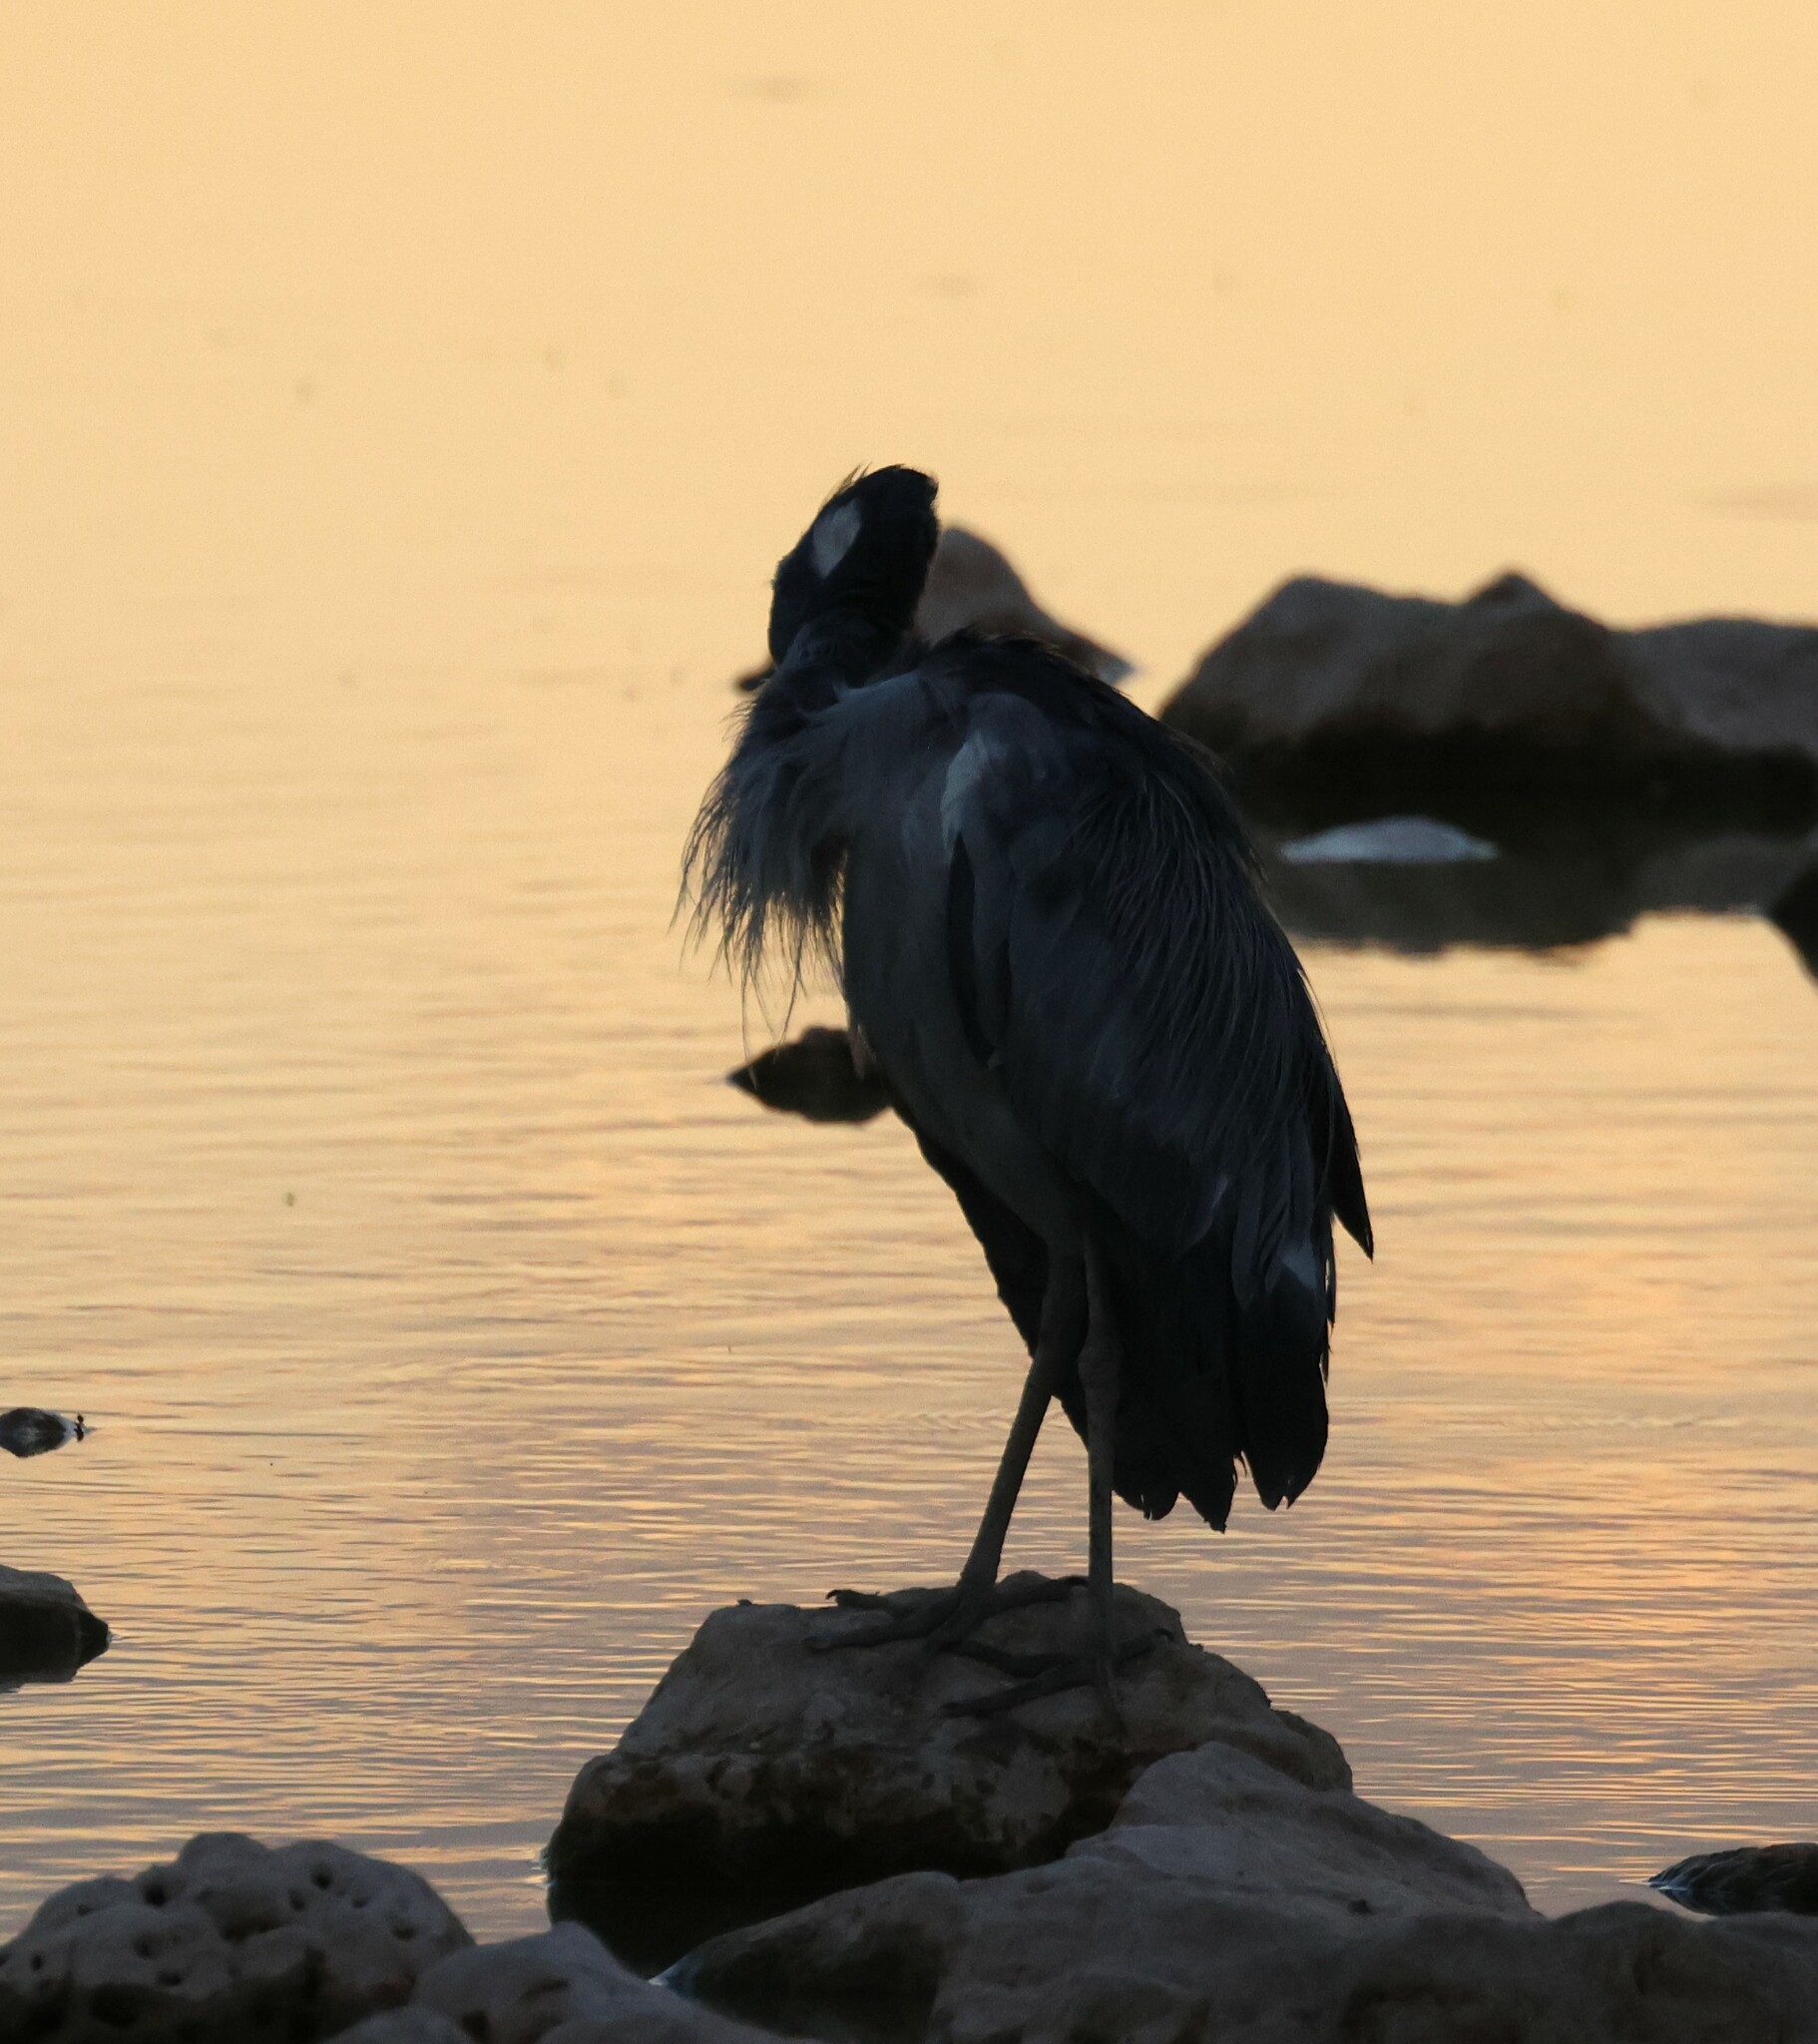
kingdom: Animalia
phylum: Chordata
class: Aves
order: Pelecaniformes
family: Ardeidae
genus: Ardea
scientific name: Ardea melanocephala
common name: Black-headed heron
